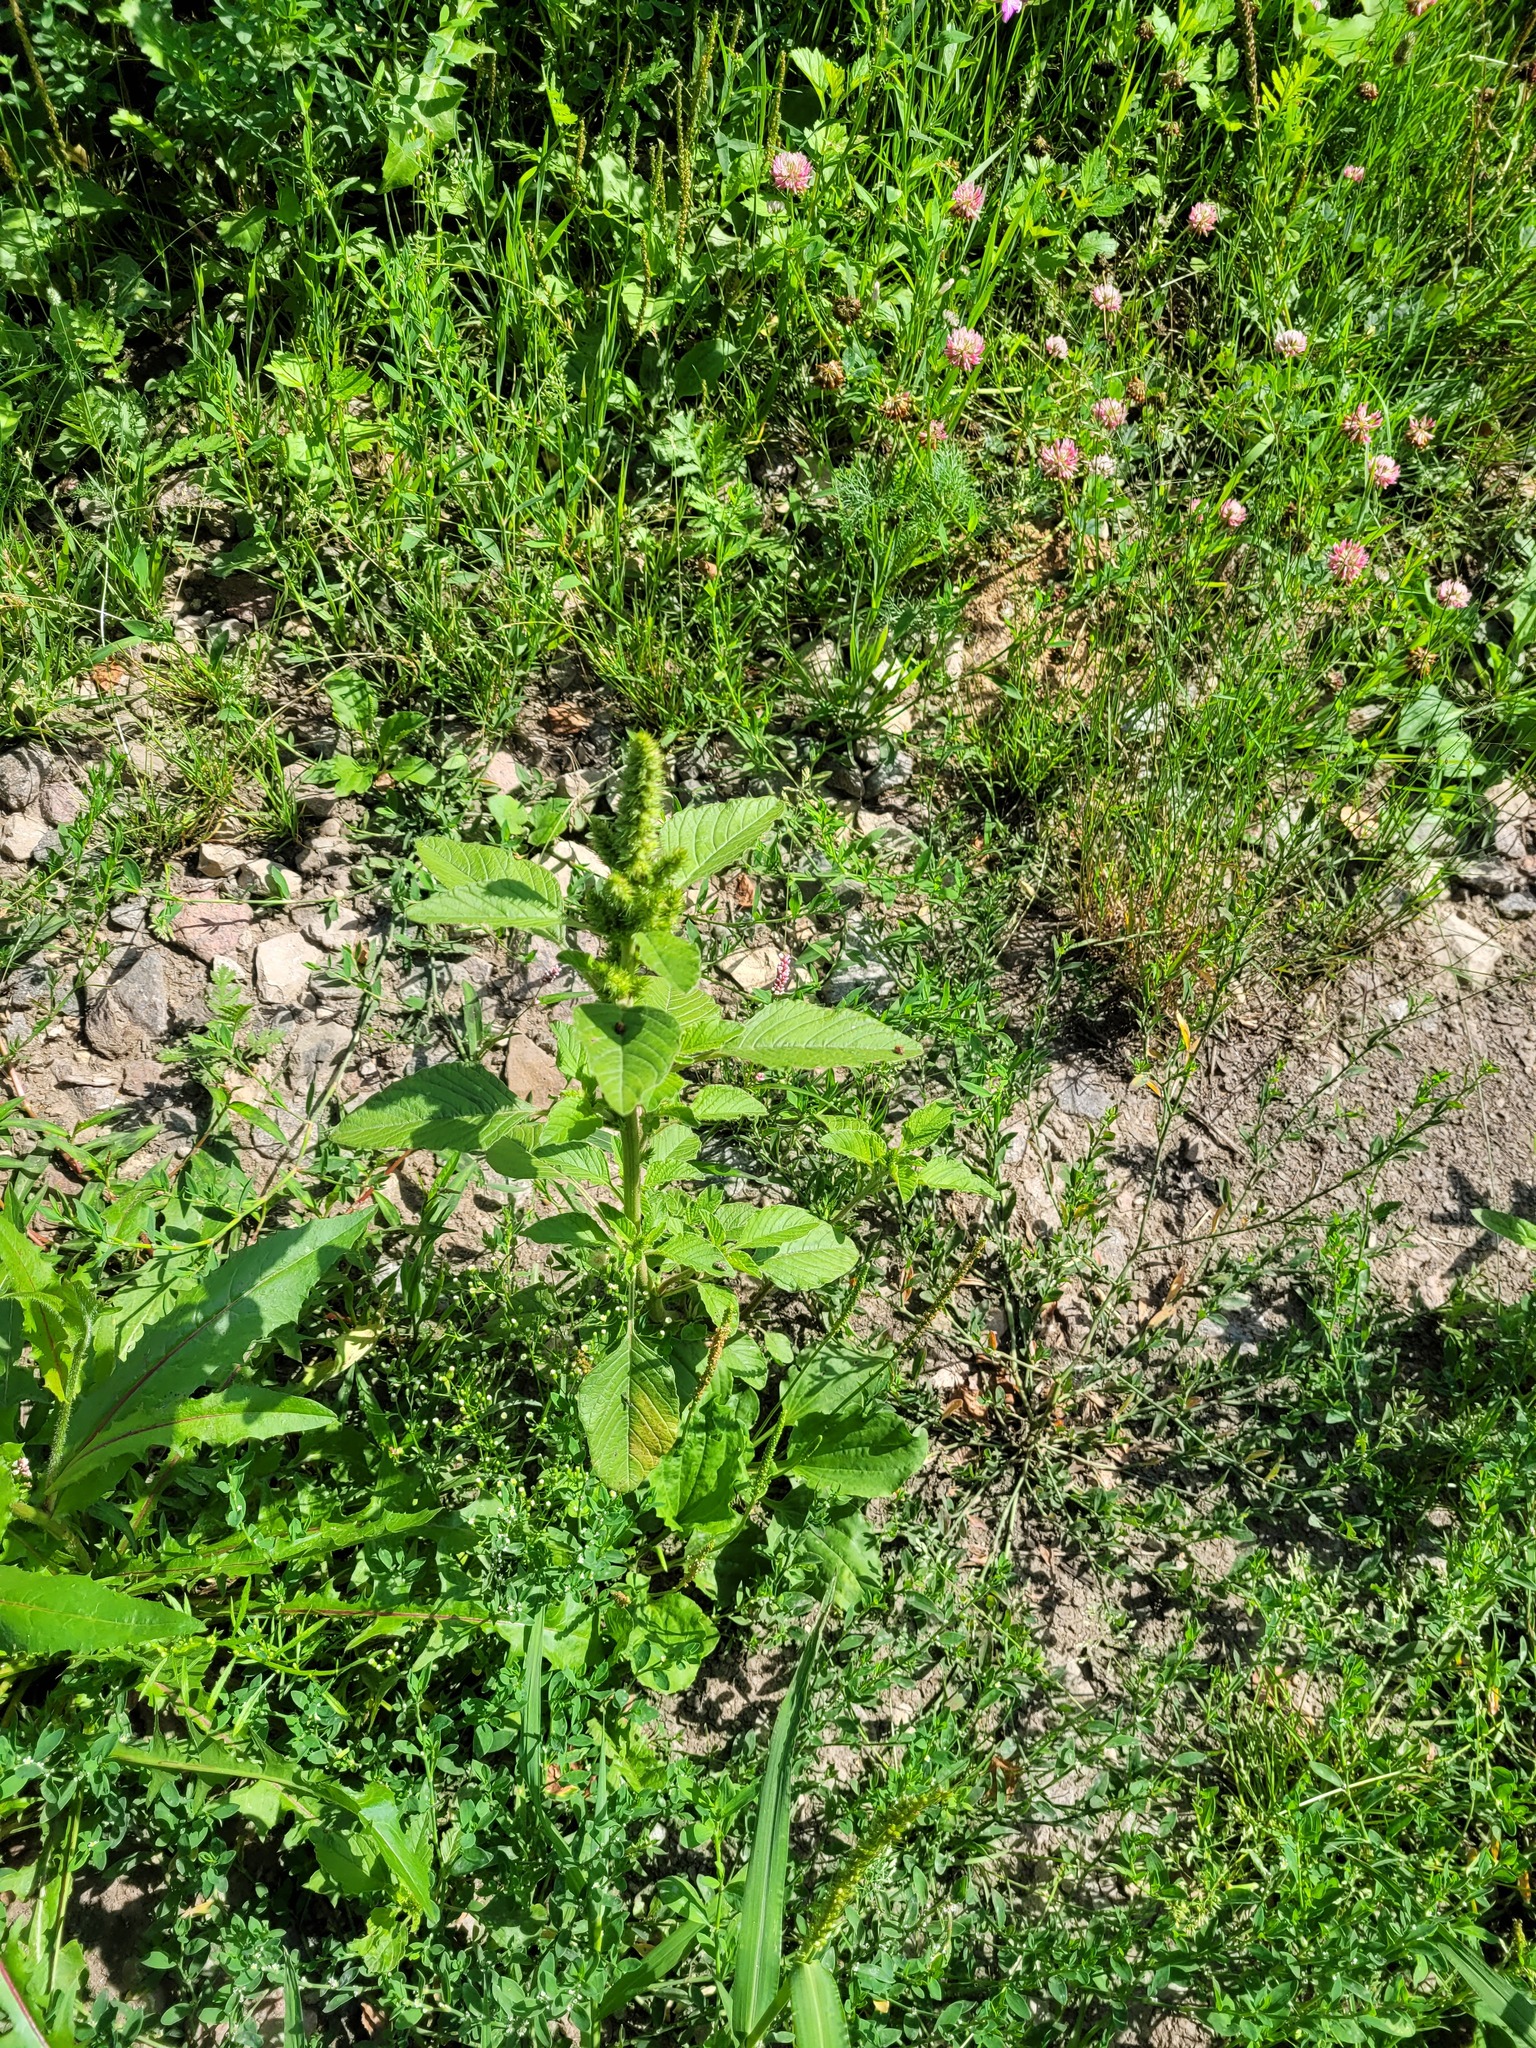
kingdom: Plantae
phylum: Tracheophyta
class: Magnoliopsida
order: Caryophyllales
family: Amaranthaceae
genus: Amaranthus
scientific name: Amaranthus retroflexus
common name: Redroot amaranth
